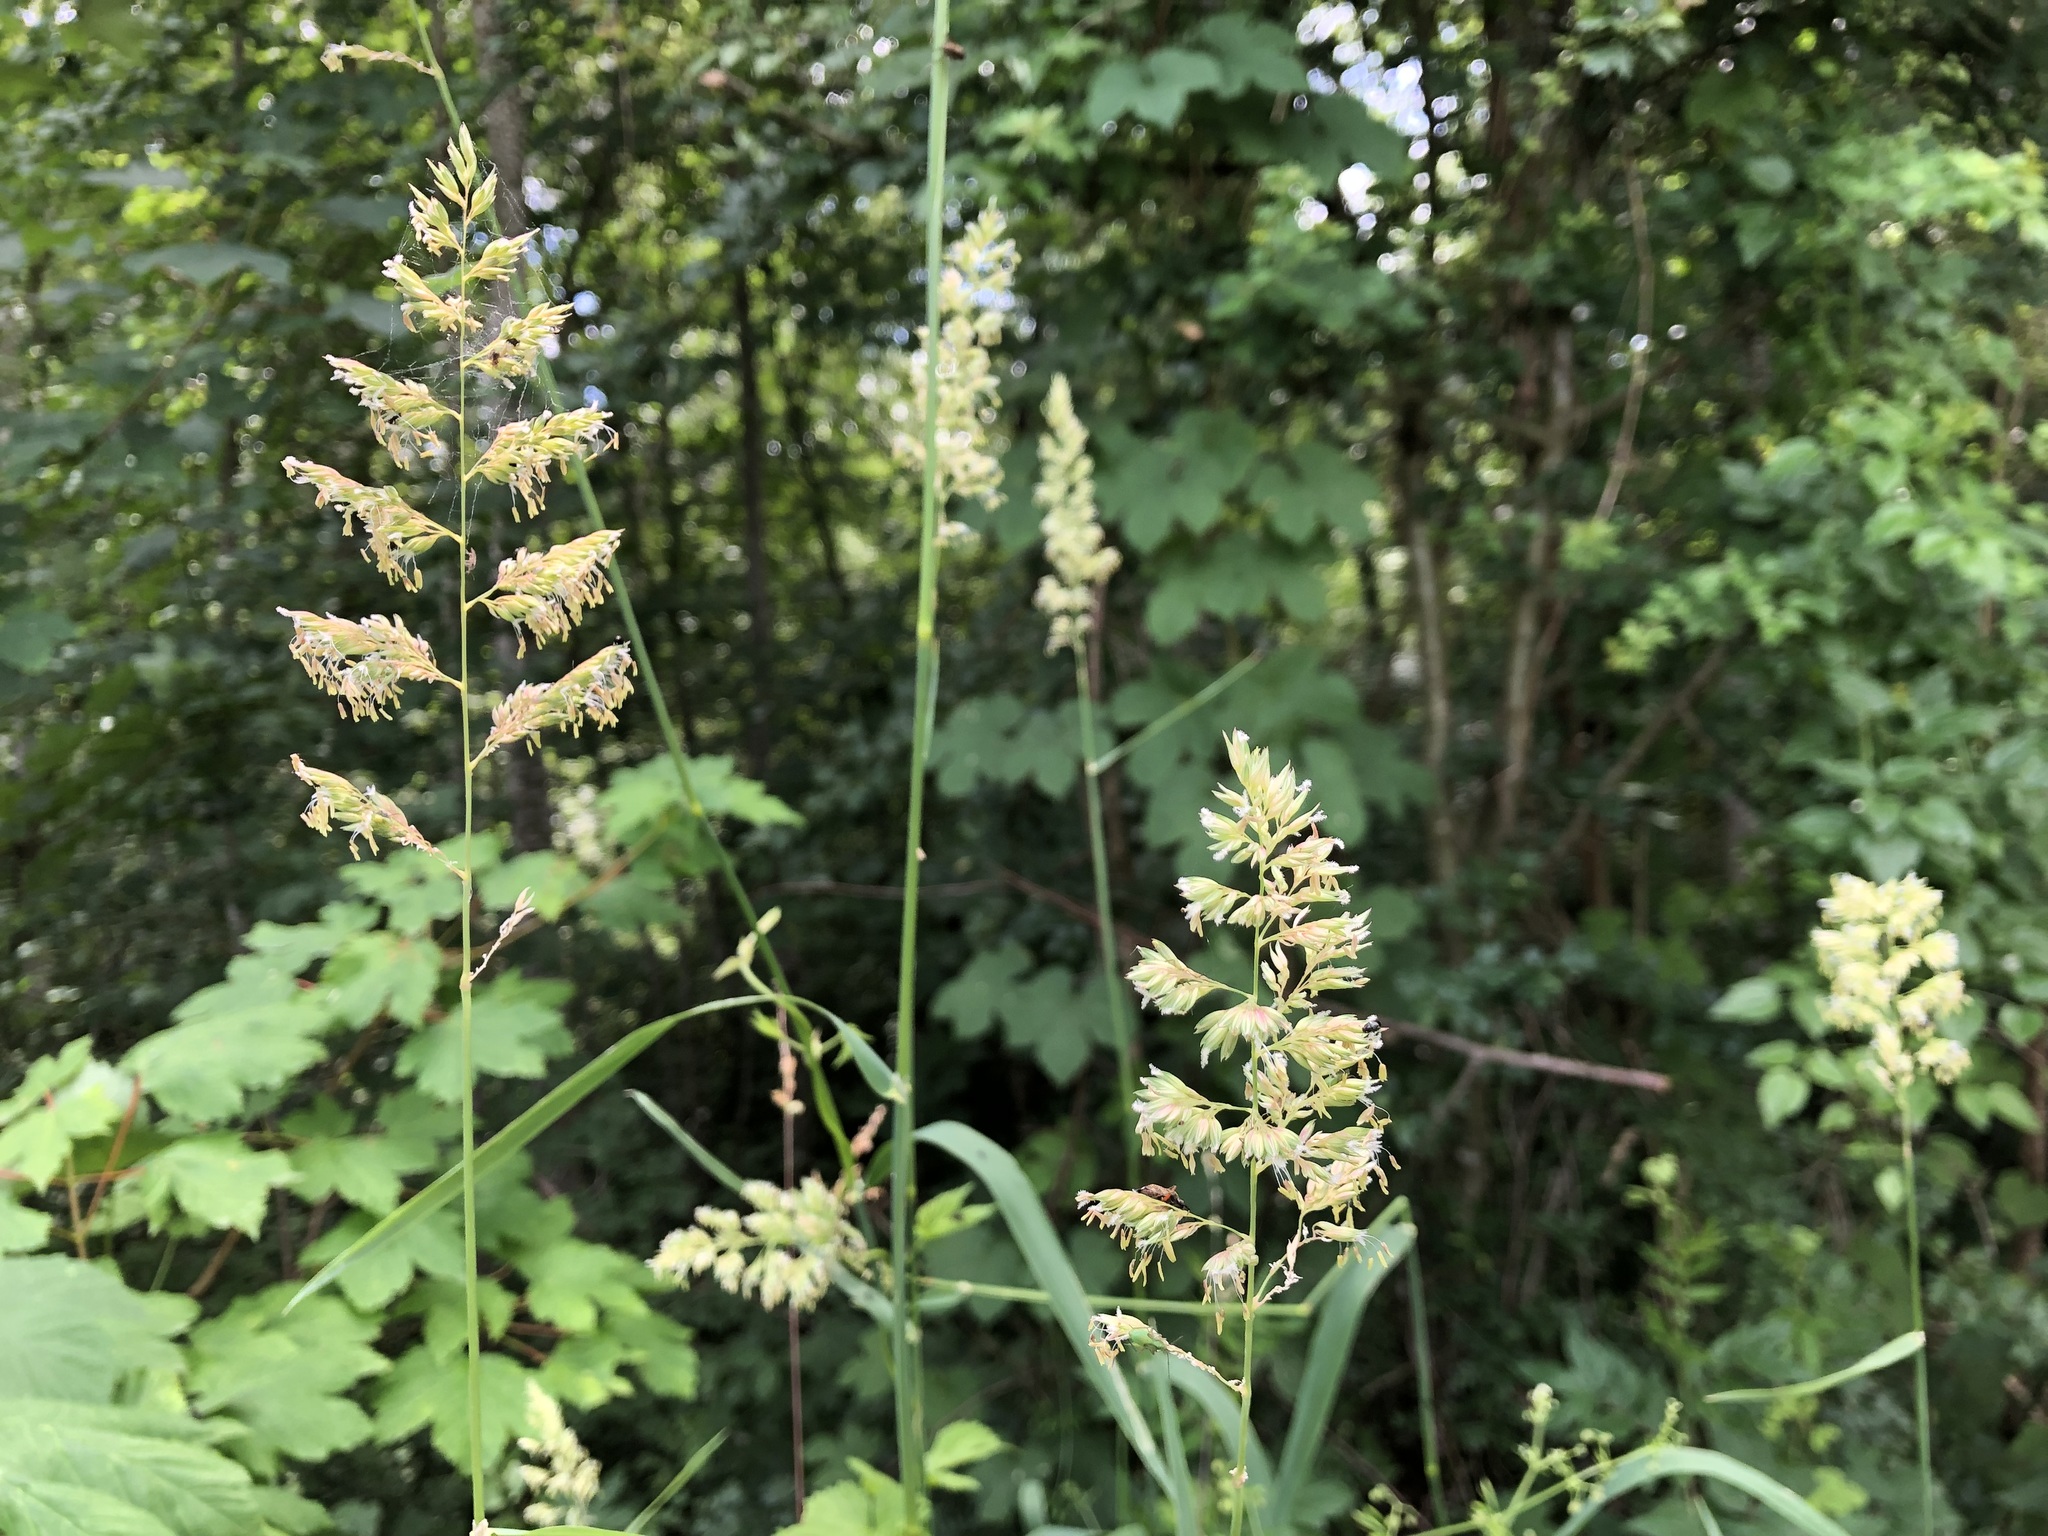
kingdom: Plantae
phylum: Tracheophyta
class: Liliopsida
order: Poales
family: Poaceae
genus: Phalaris
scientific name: Phalaris arundinacea
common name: Reed canary-grass
